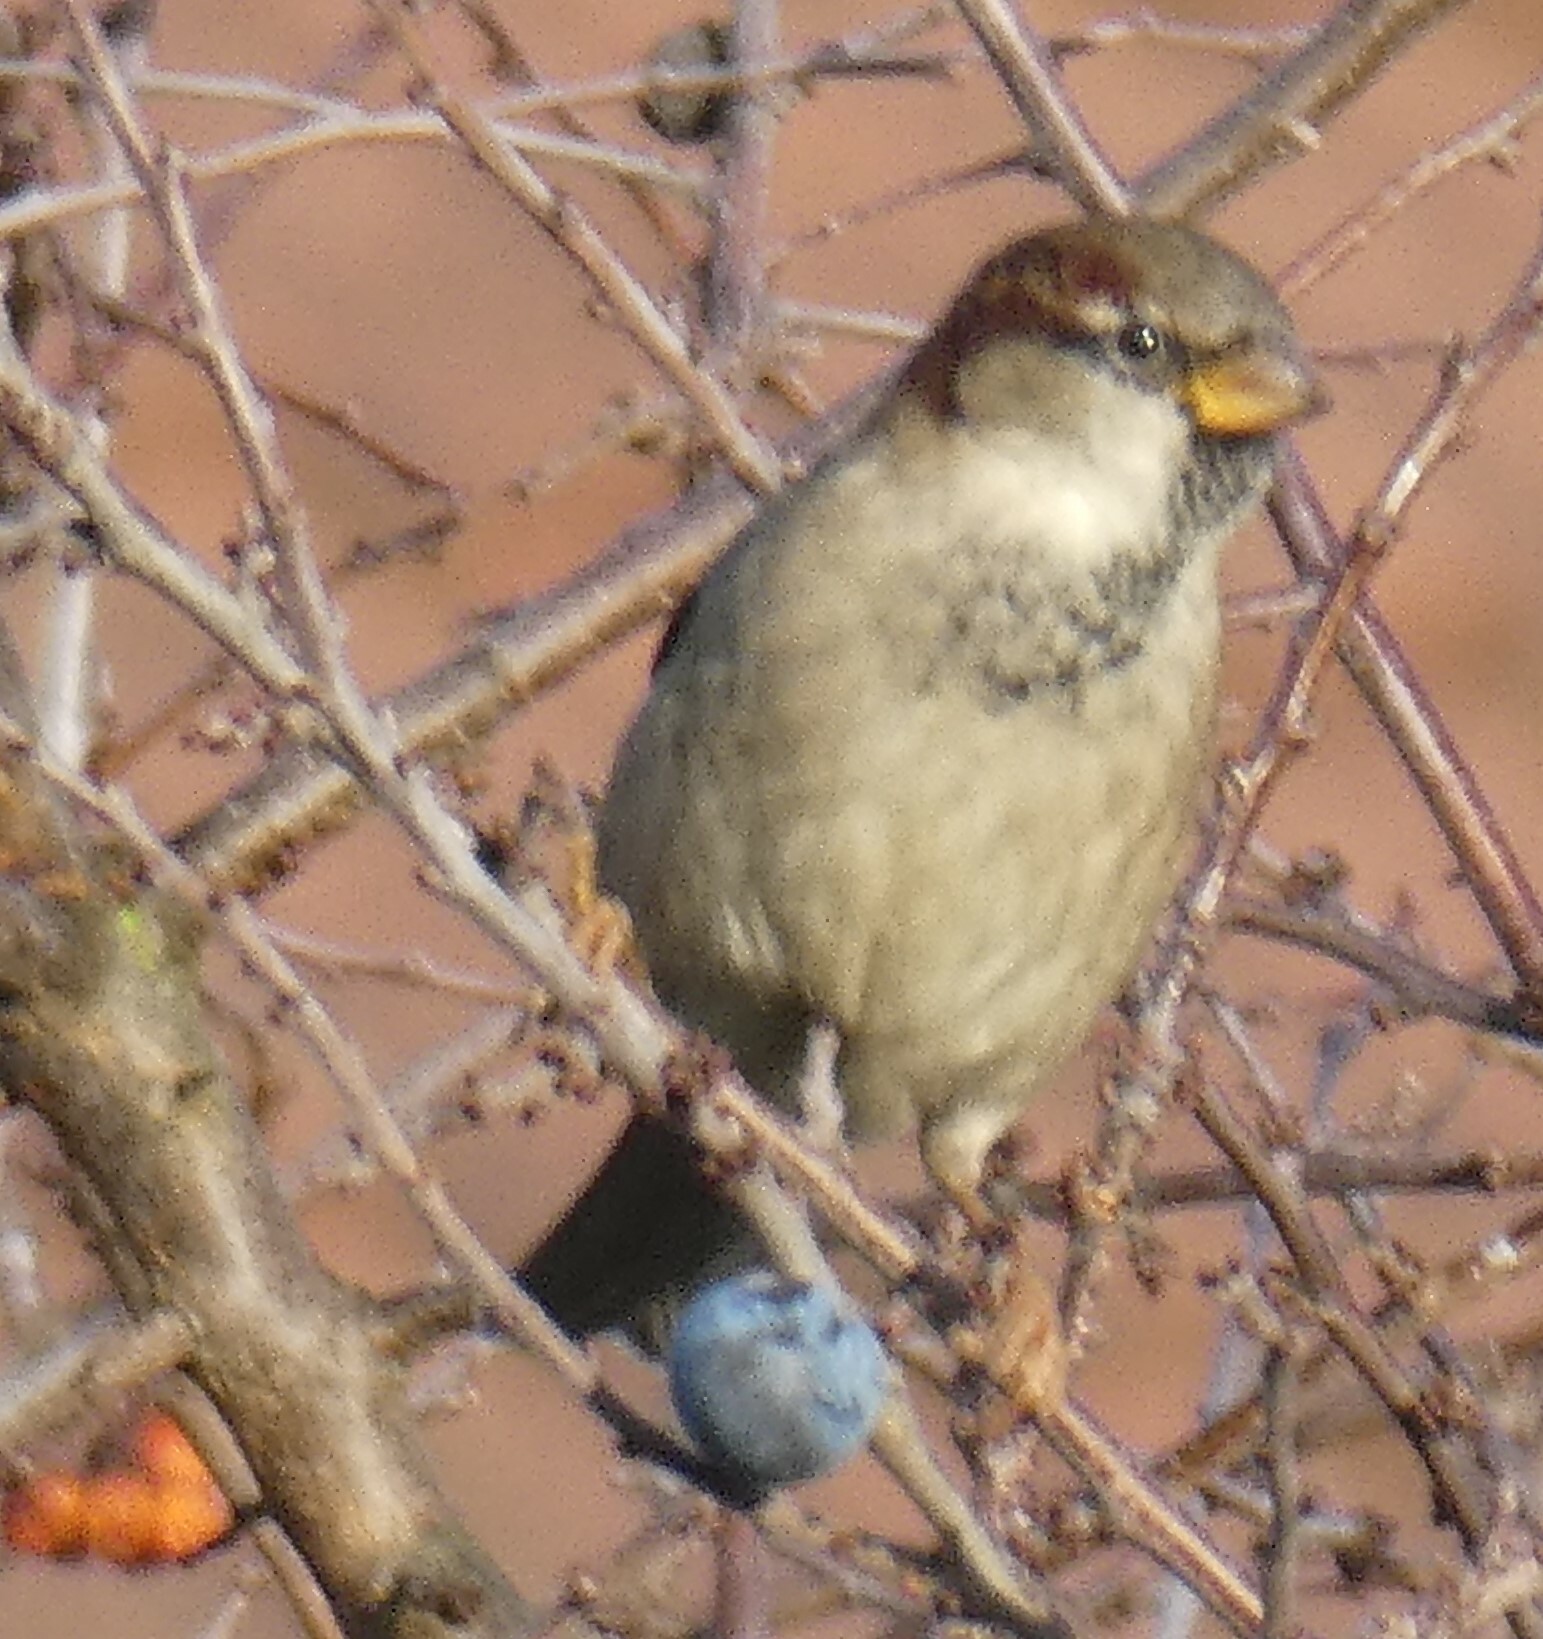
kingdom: Animalia
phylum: Chordata
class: Aves
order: Passeriformes
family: Passeridae
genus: Passer
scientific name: Passer domesticus
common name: House sparrow
